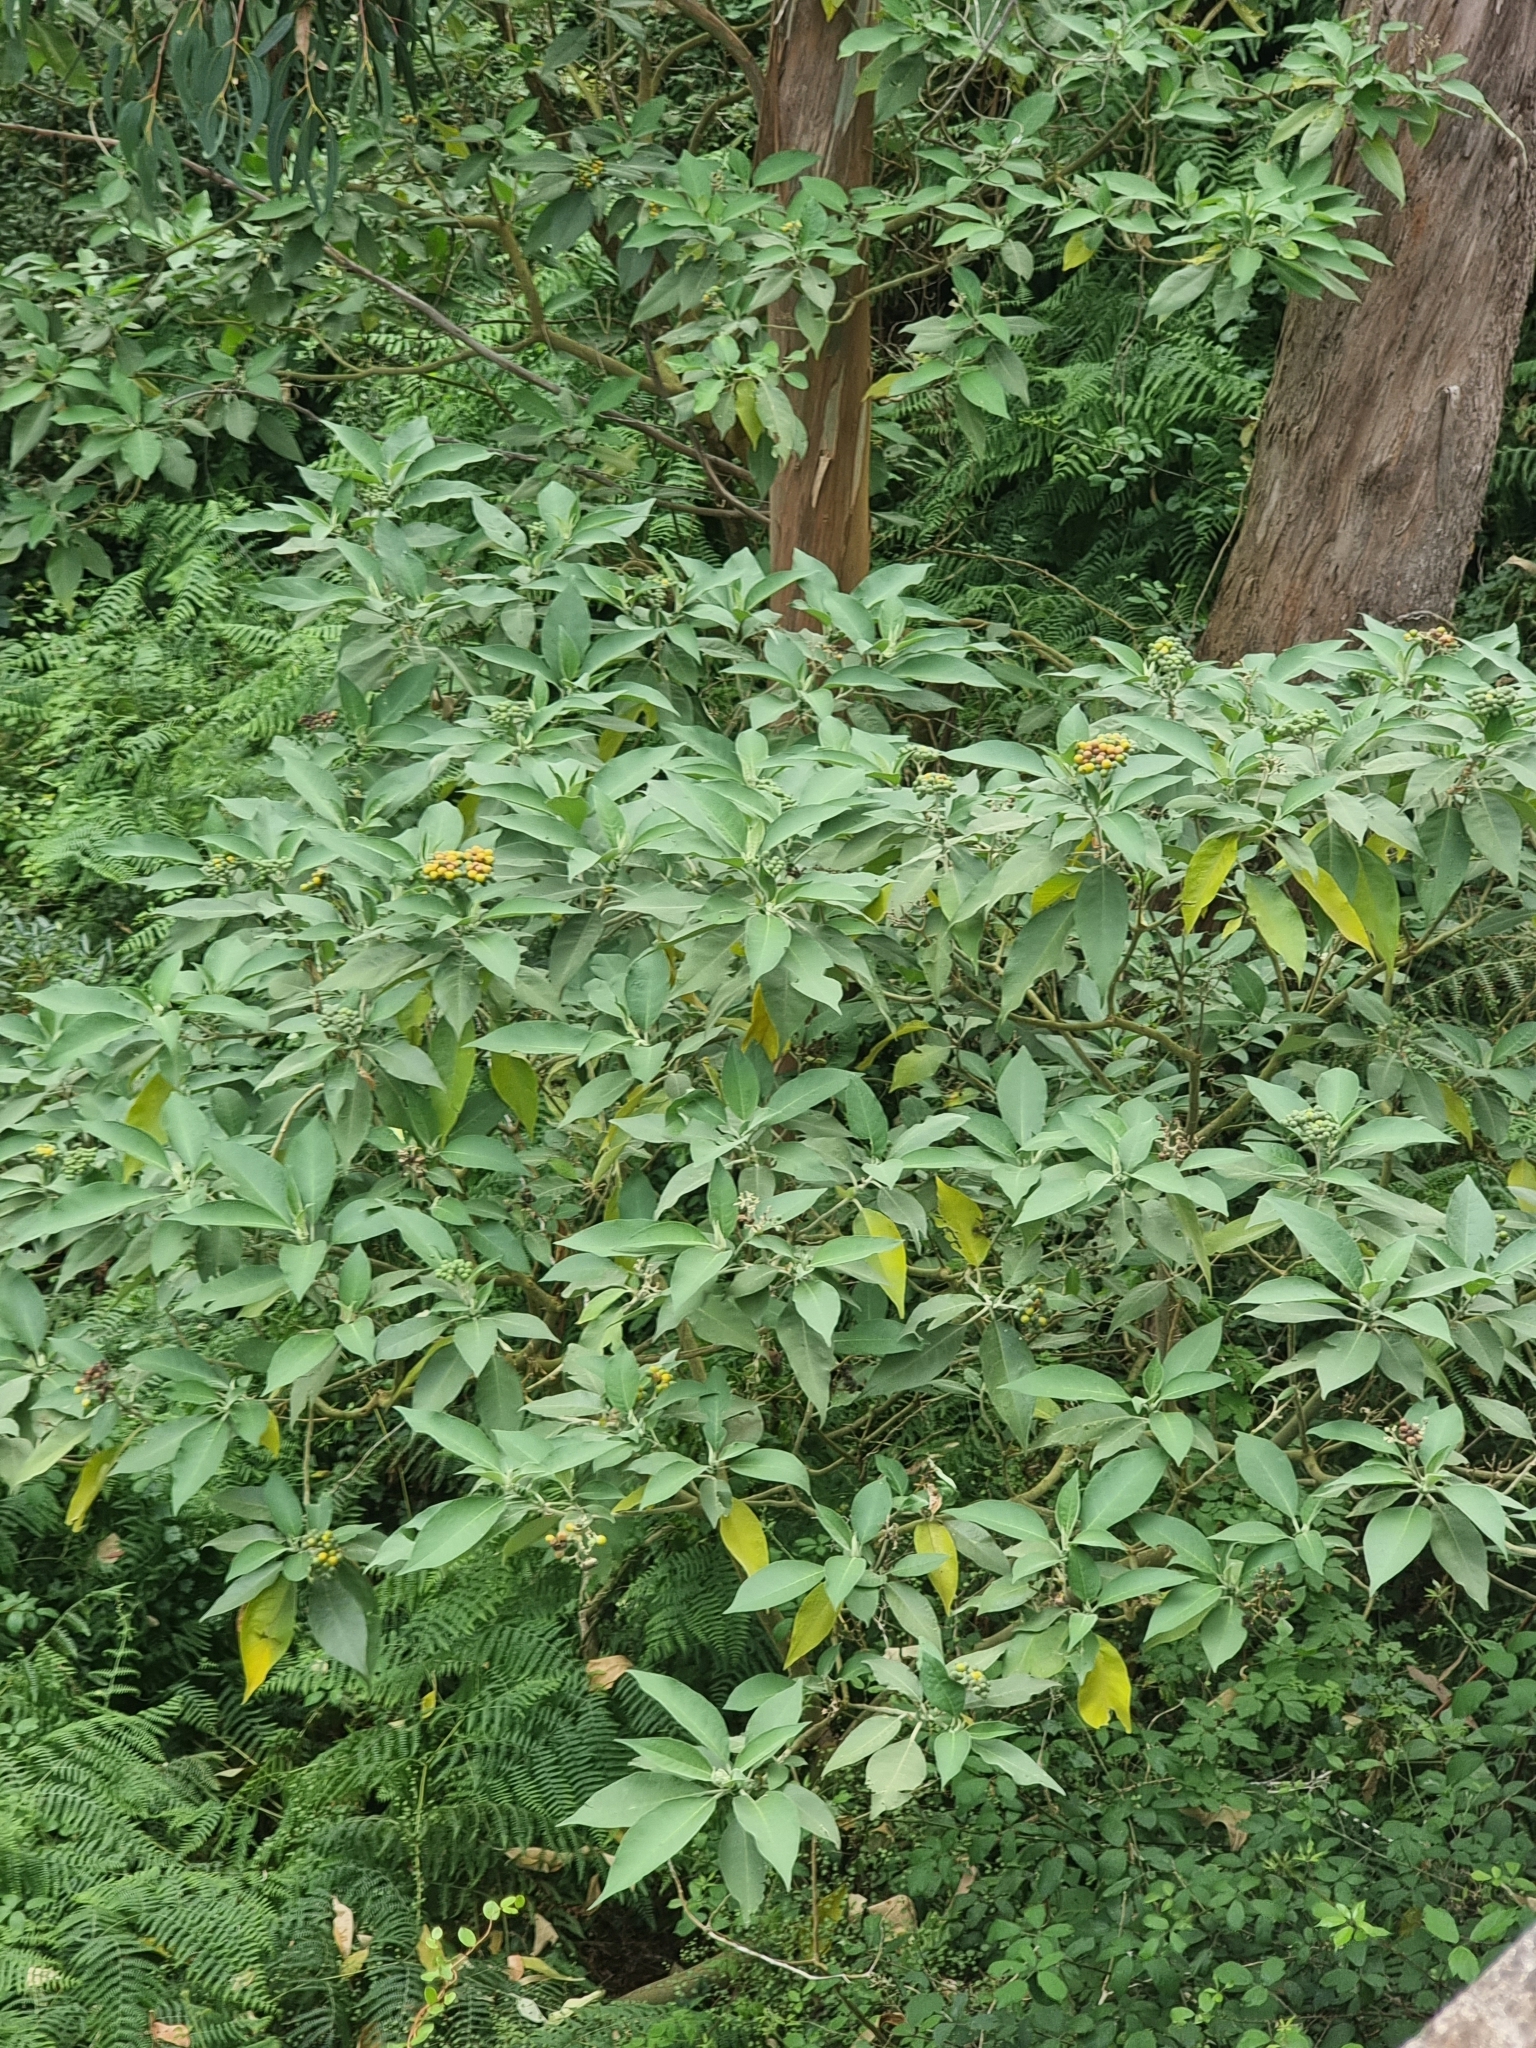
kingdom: Plantae
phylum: Tracheophyta
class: Magnoliopsida
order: Solanales
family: Solanaceae
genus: Solanum
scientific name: Solanum mauritianum
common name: Earleaf nightshade
